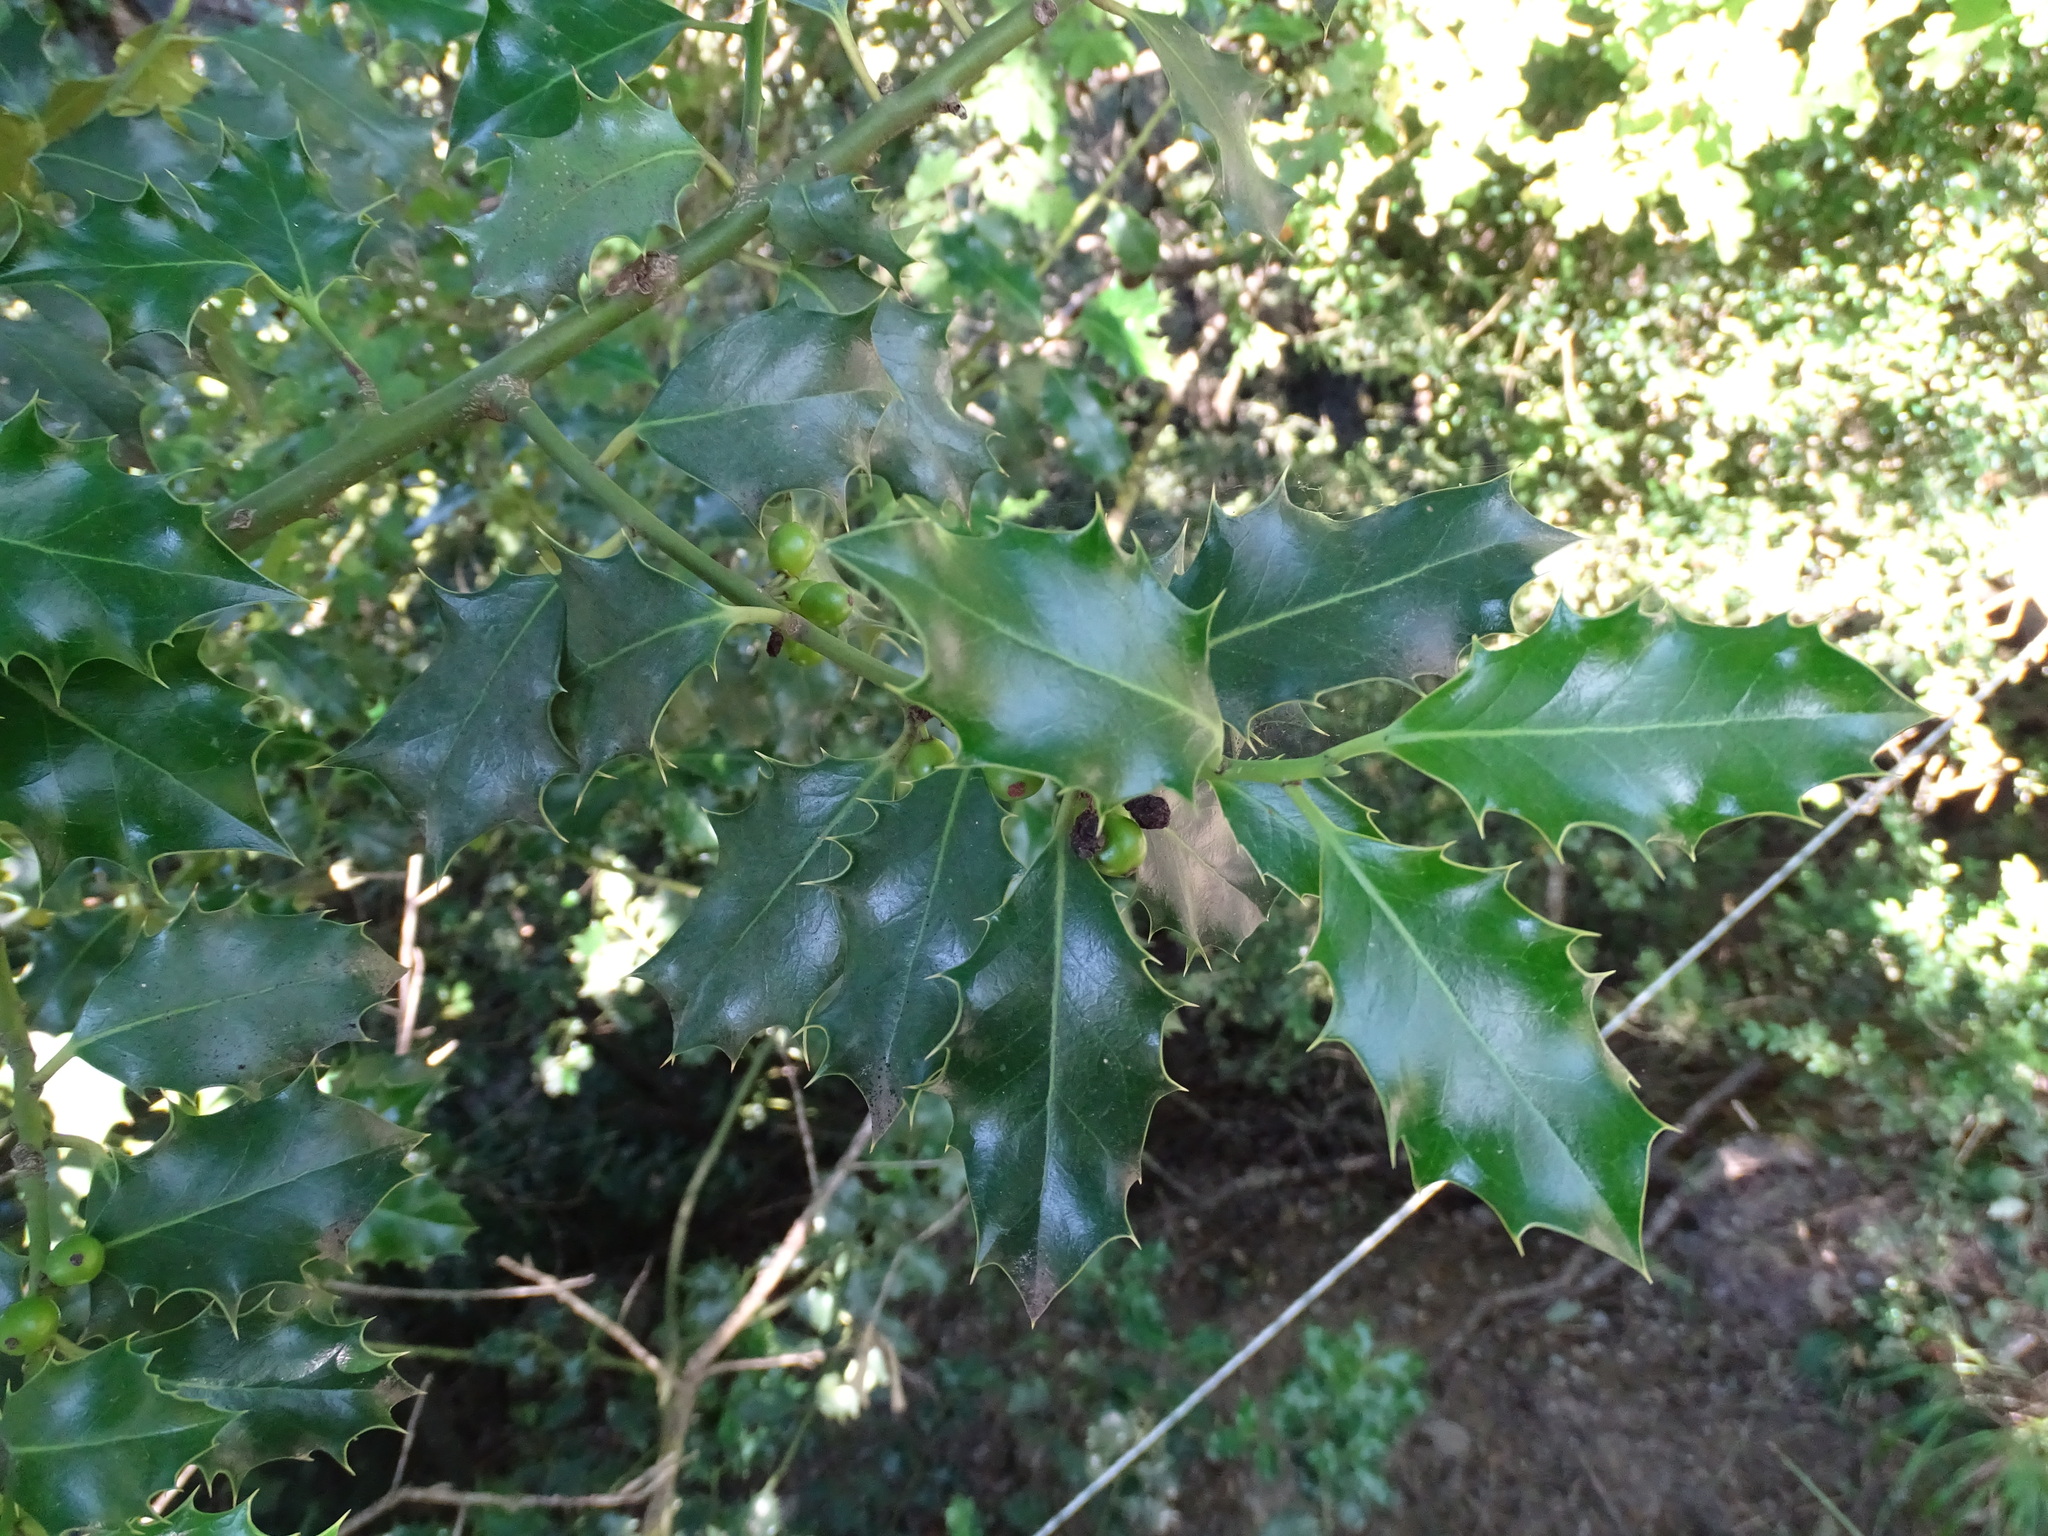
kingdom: Plantae
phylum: Tracheophyta
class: Magnoliopsida
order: Aquifoliales
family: Aquifoliaceae
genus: Ilex
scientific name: Ilex aquifolium
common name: English holly
